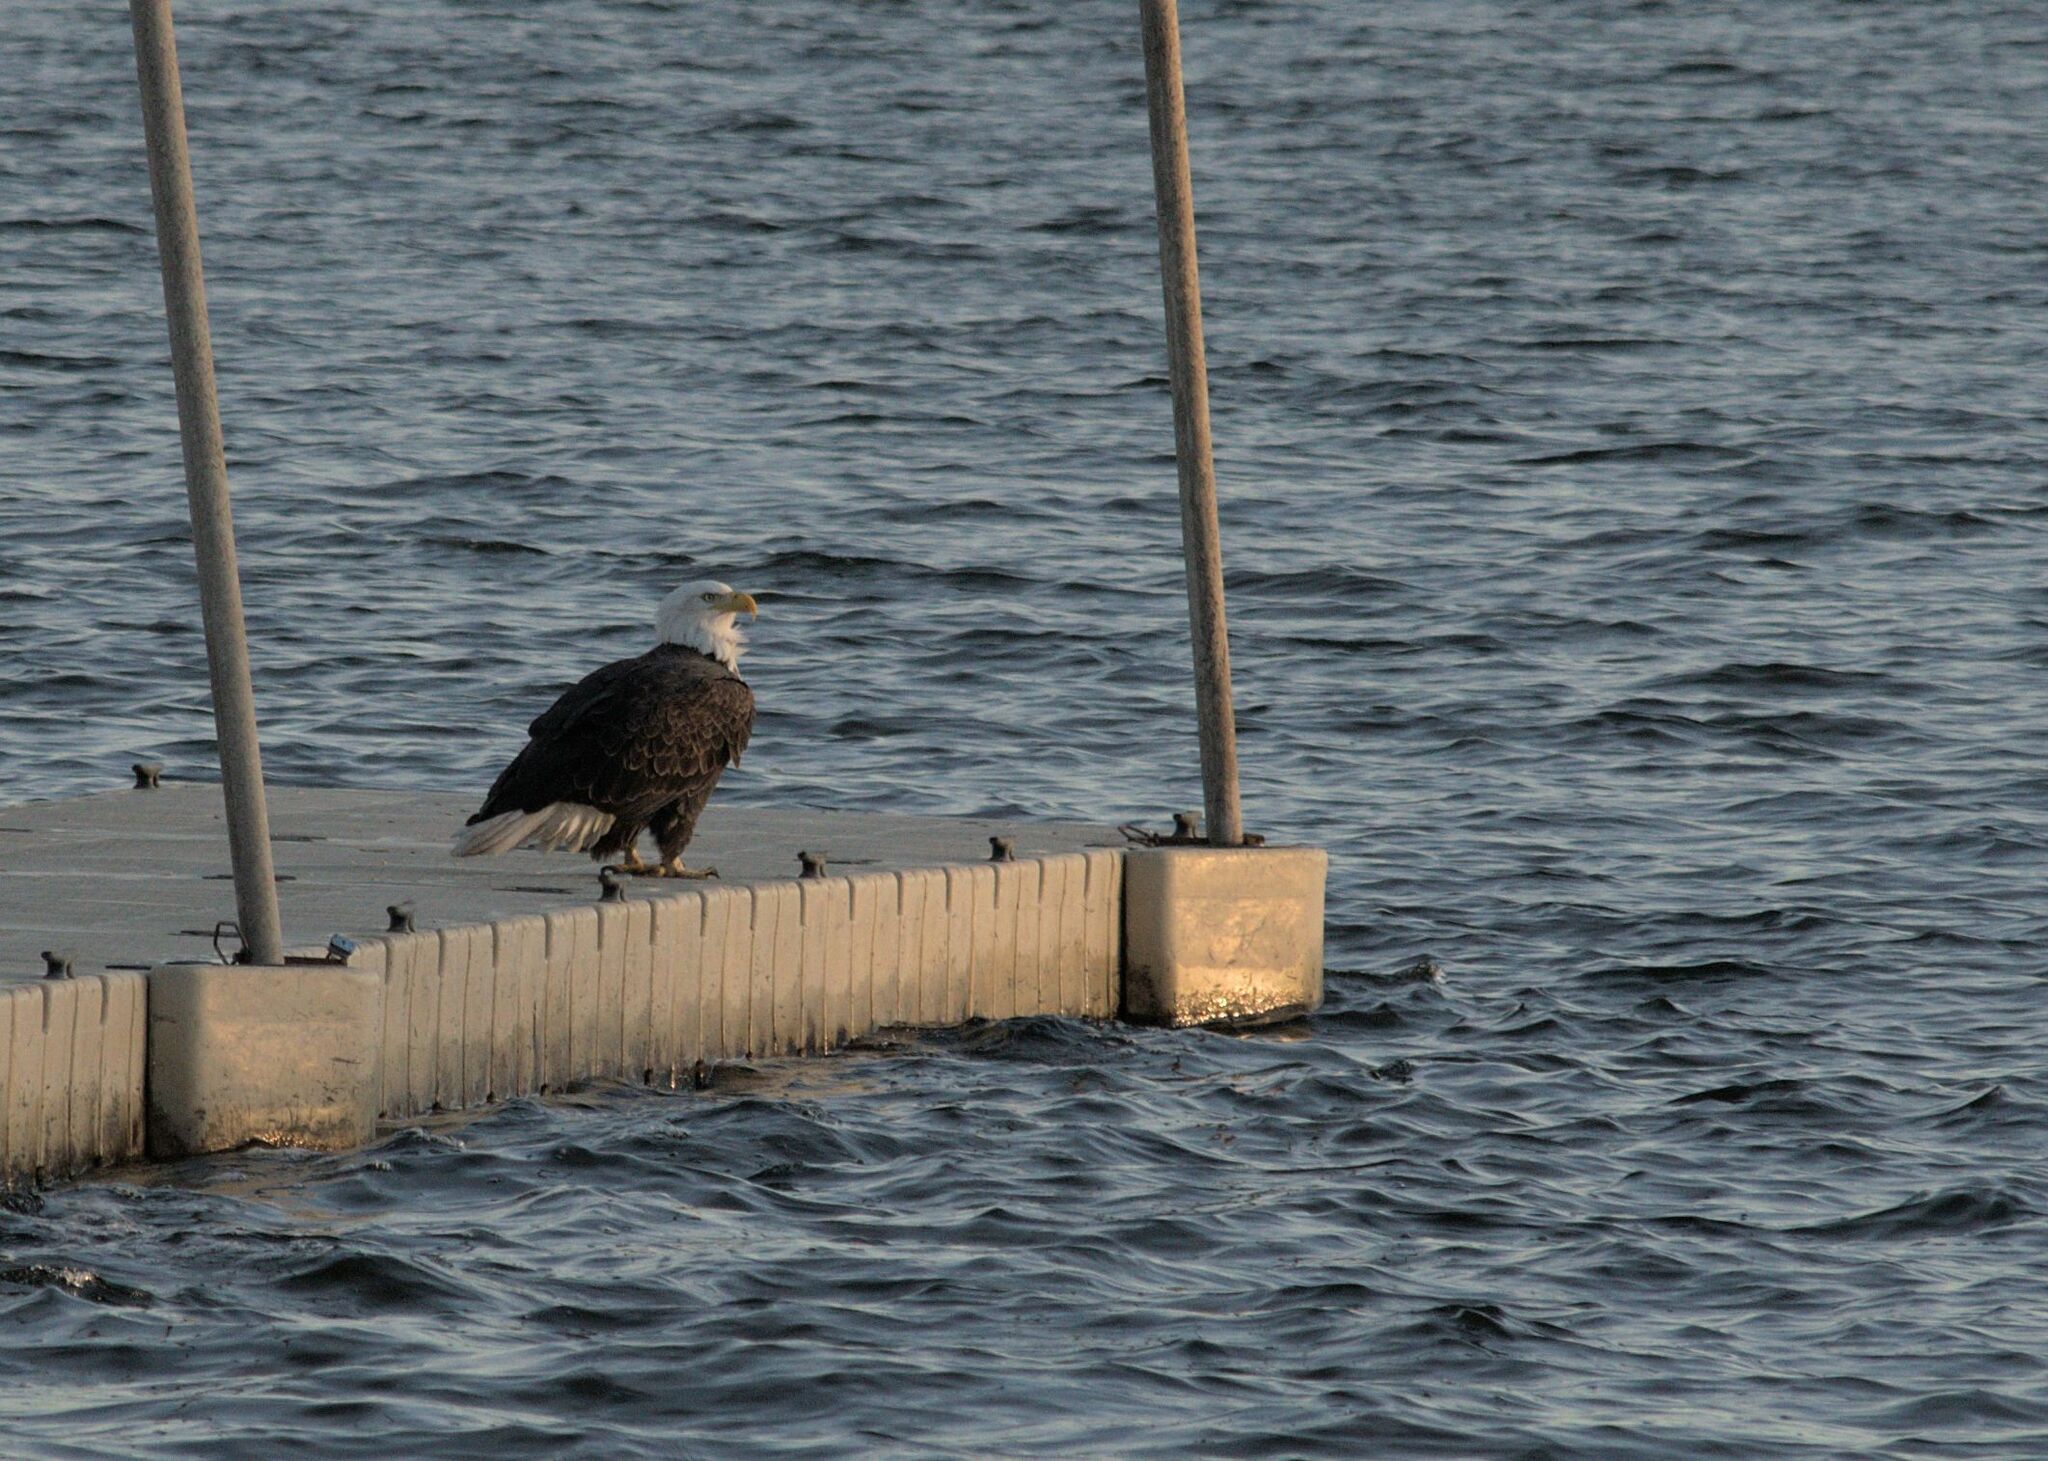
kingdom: Animalia
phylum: Chordata
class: Aves
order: Accipitriformes
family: Accipitridae
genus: Haliaeetus
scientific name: Haliaeetus leucocephalus
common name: Bald eagle
